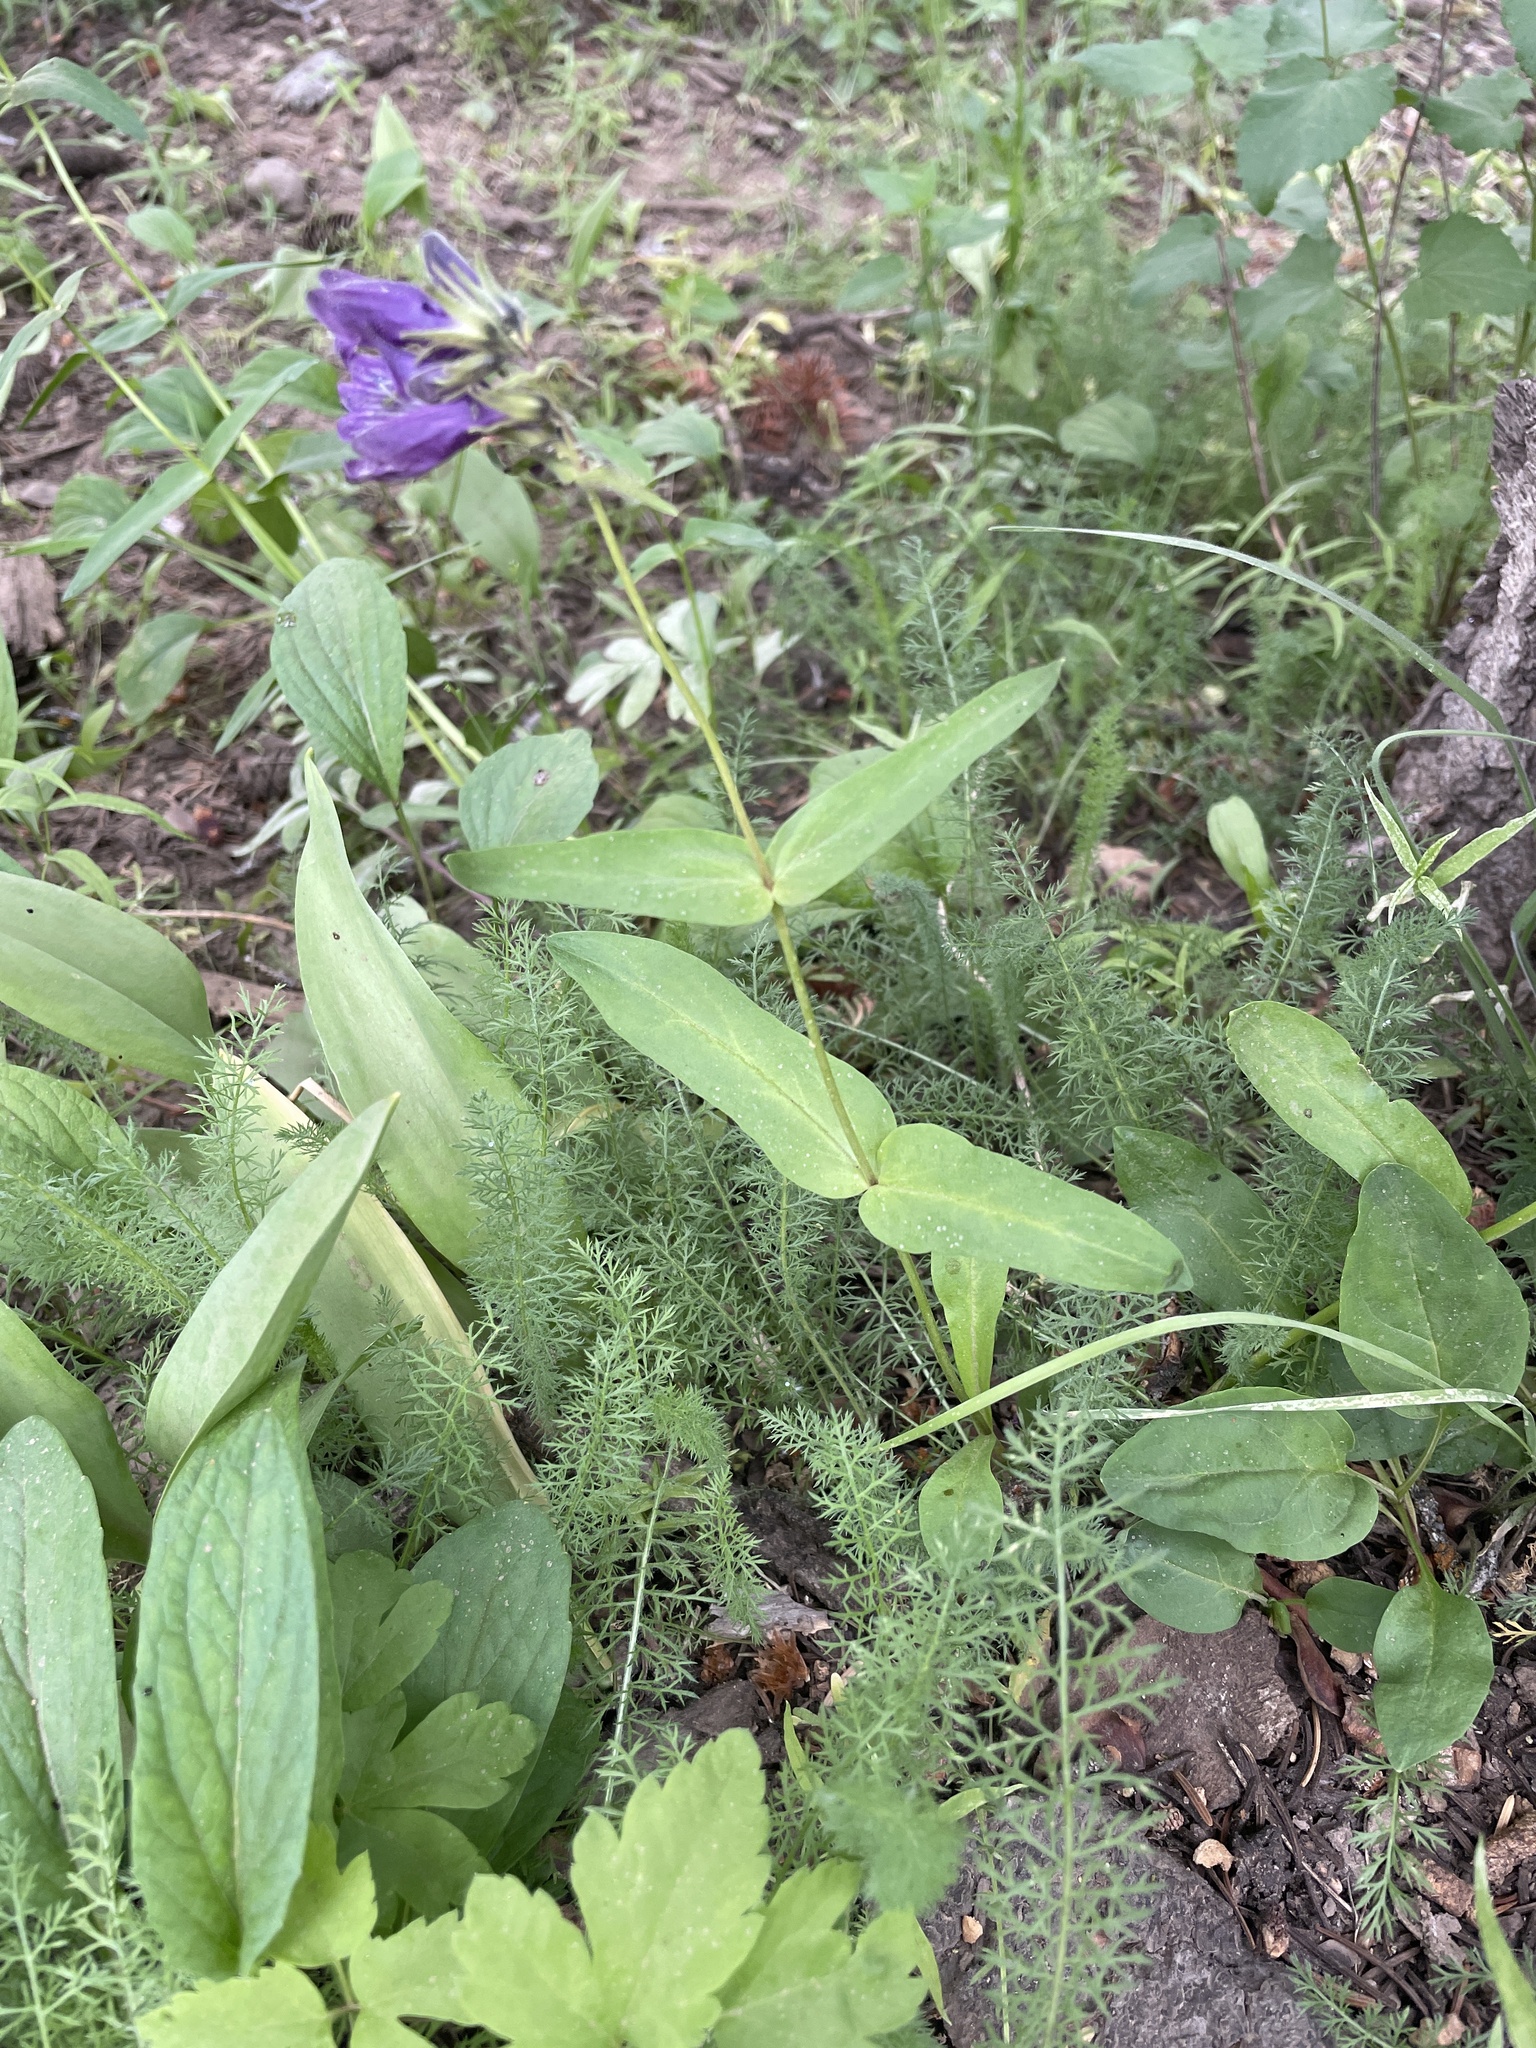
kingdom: Plantae
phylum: Tracheophyta
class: Magnoliopsida
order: Lamiales
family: Plantaginaceae
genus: Penstemon
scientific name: Penstemon whippleanus
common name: Whipple's penstemon
